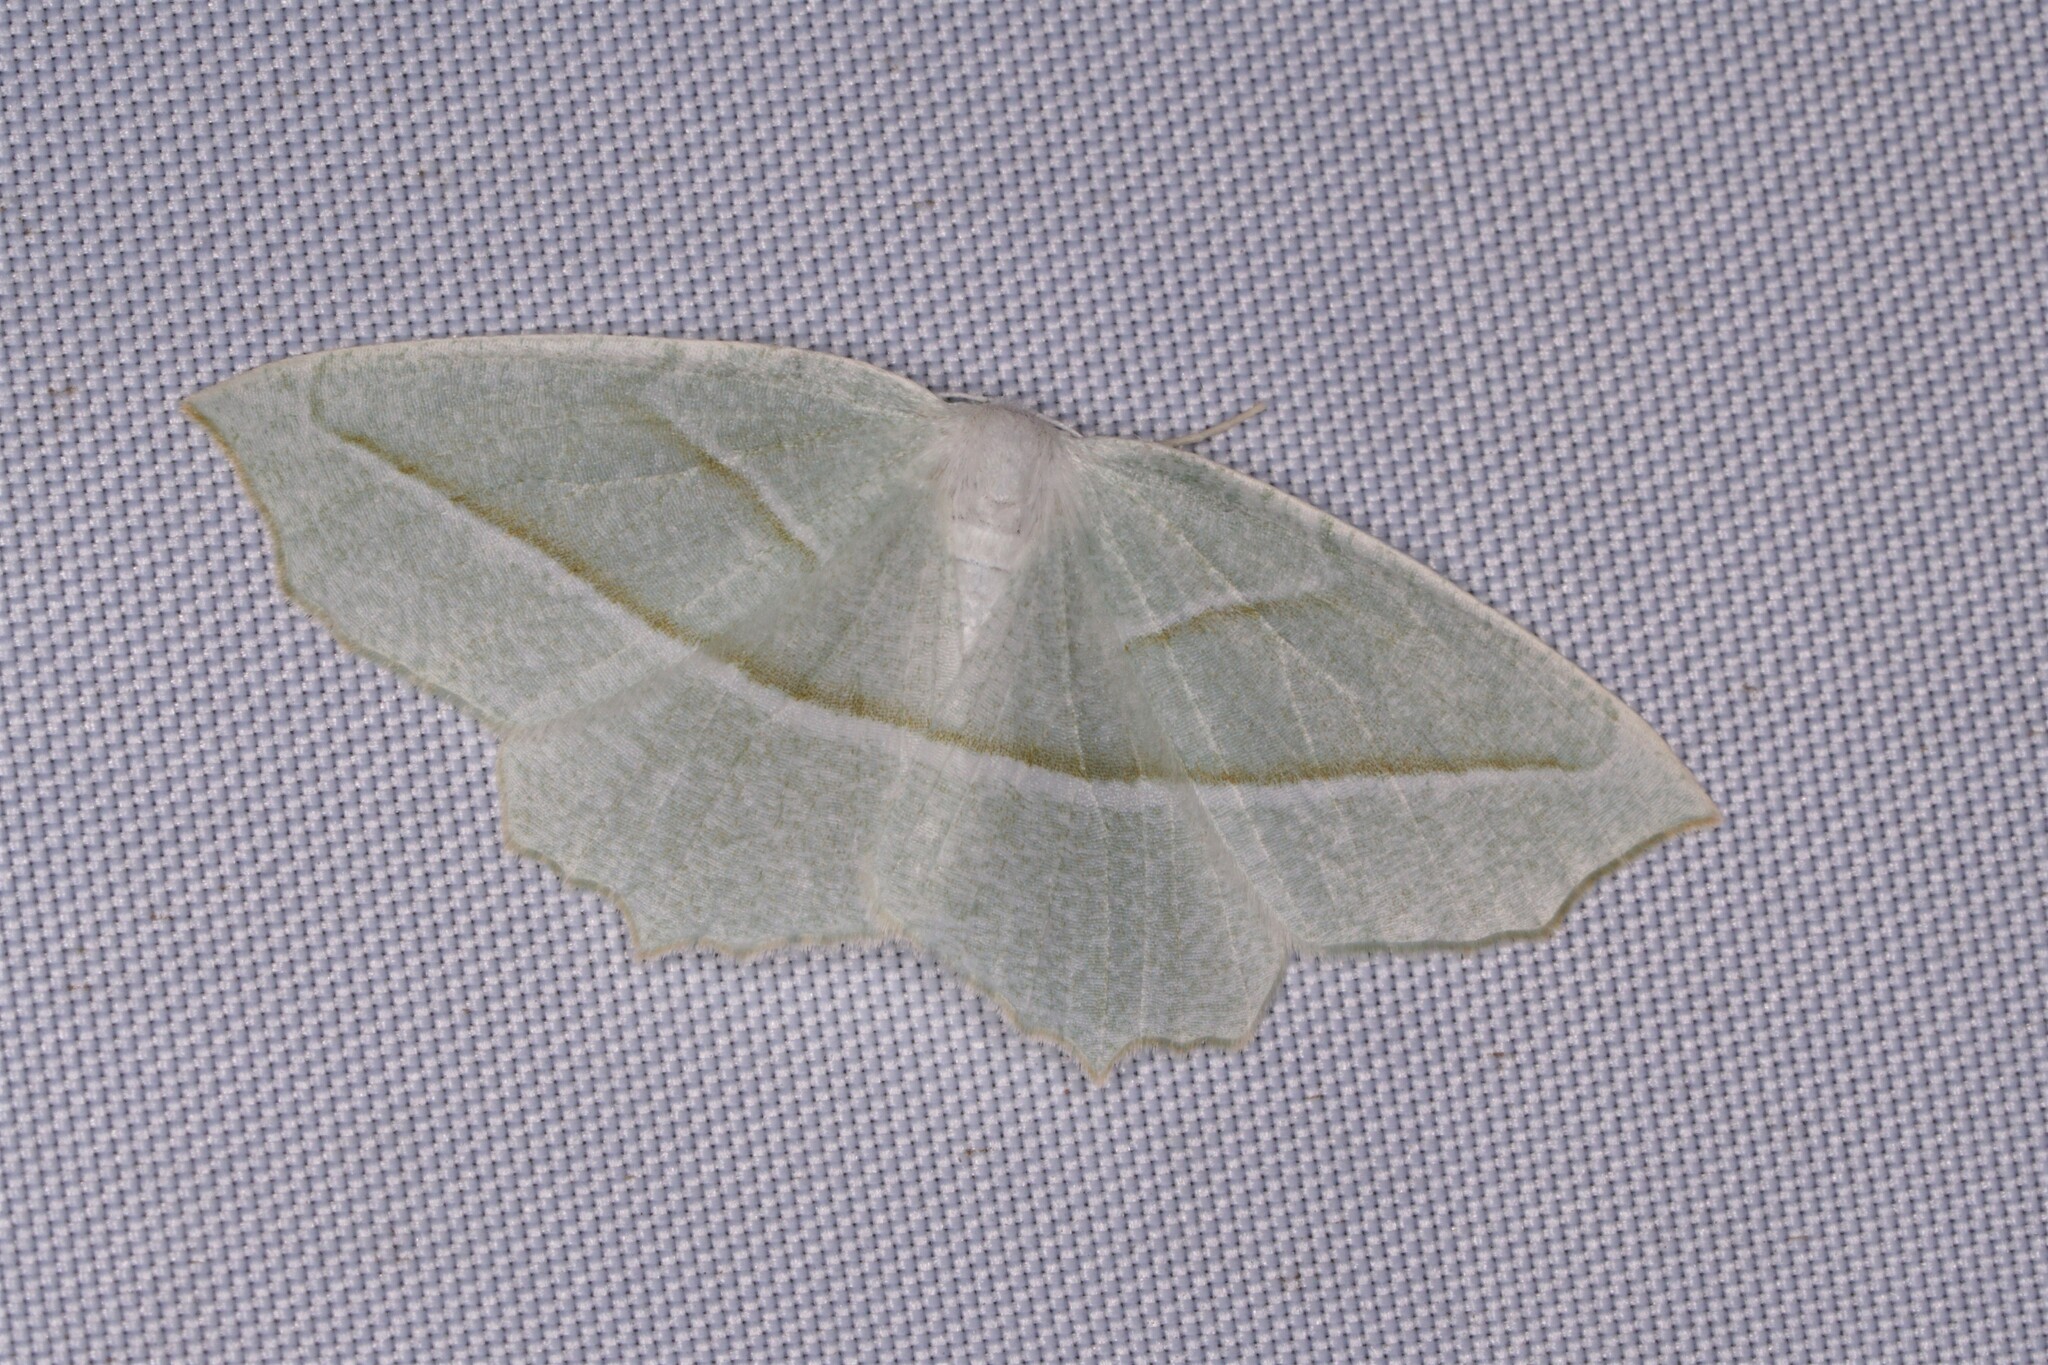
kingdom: Animalia
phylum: Arthropoda
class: Insecta
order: Lepidoptera
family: Geometridae
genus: Campaea
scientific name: Campaea perlata
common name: Fringed looper
